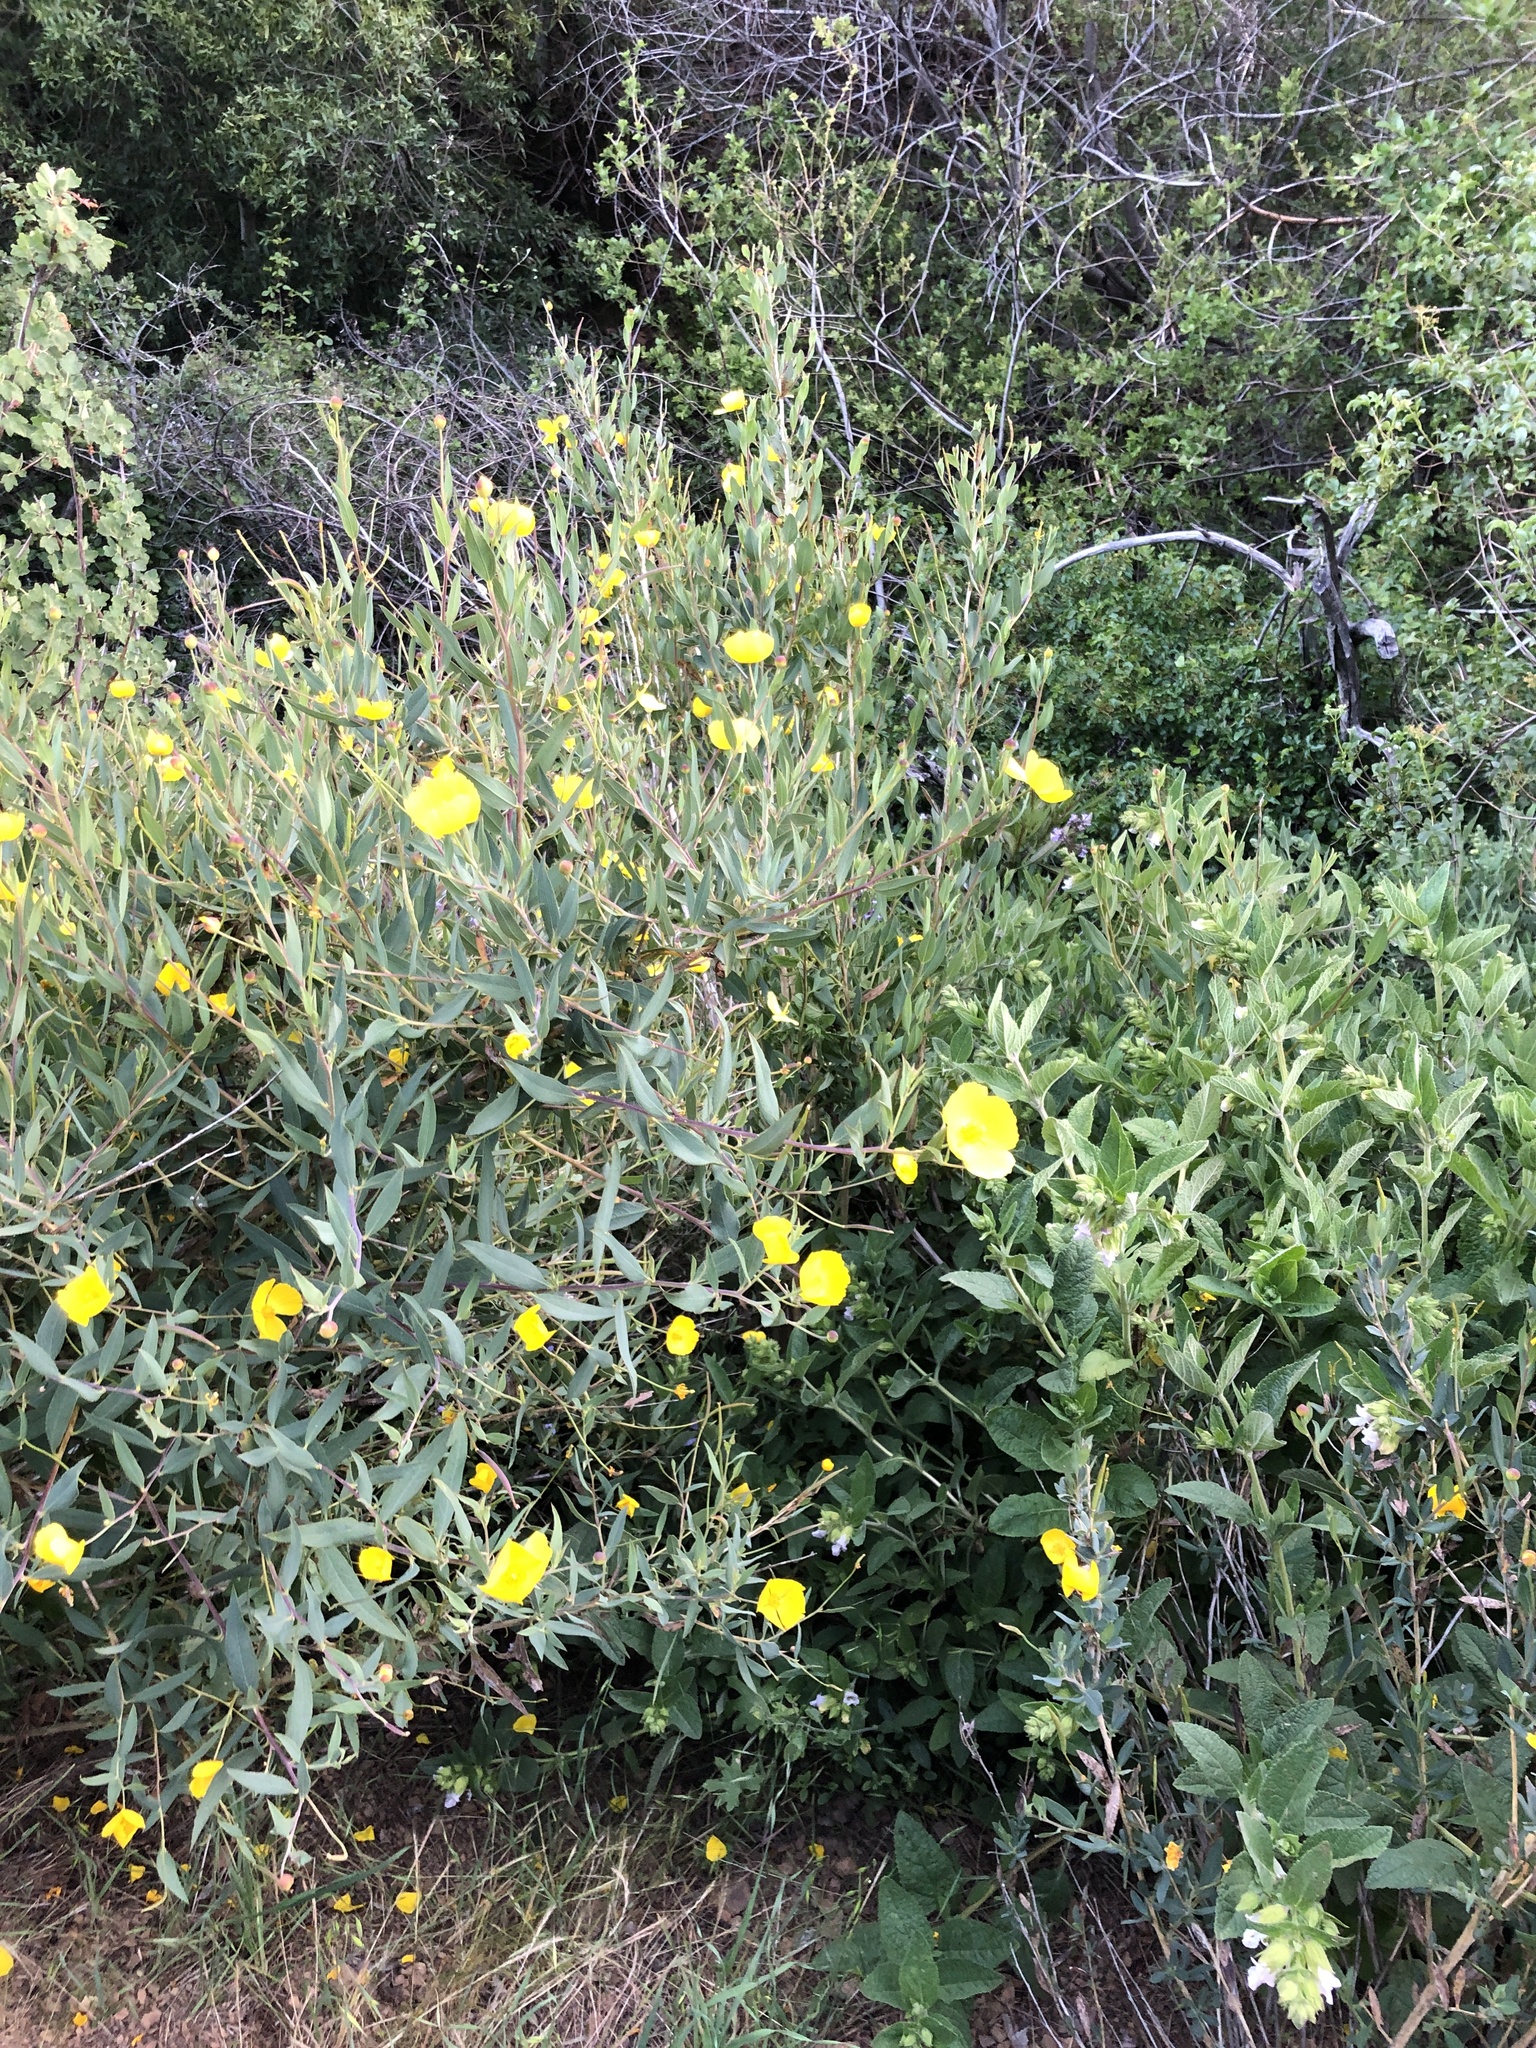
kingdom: Plantae
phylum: Tracheophyta
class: Magnoliopsida
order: Ranunculales
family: Papaveraceae
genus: Dendromecon
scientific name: Dendromecon rigida
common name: Tree poppy
